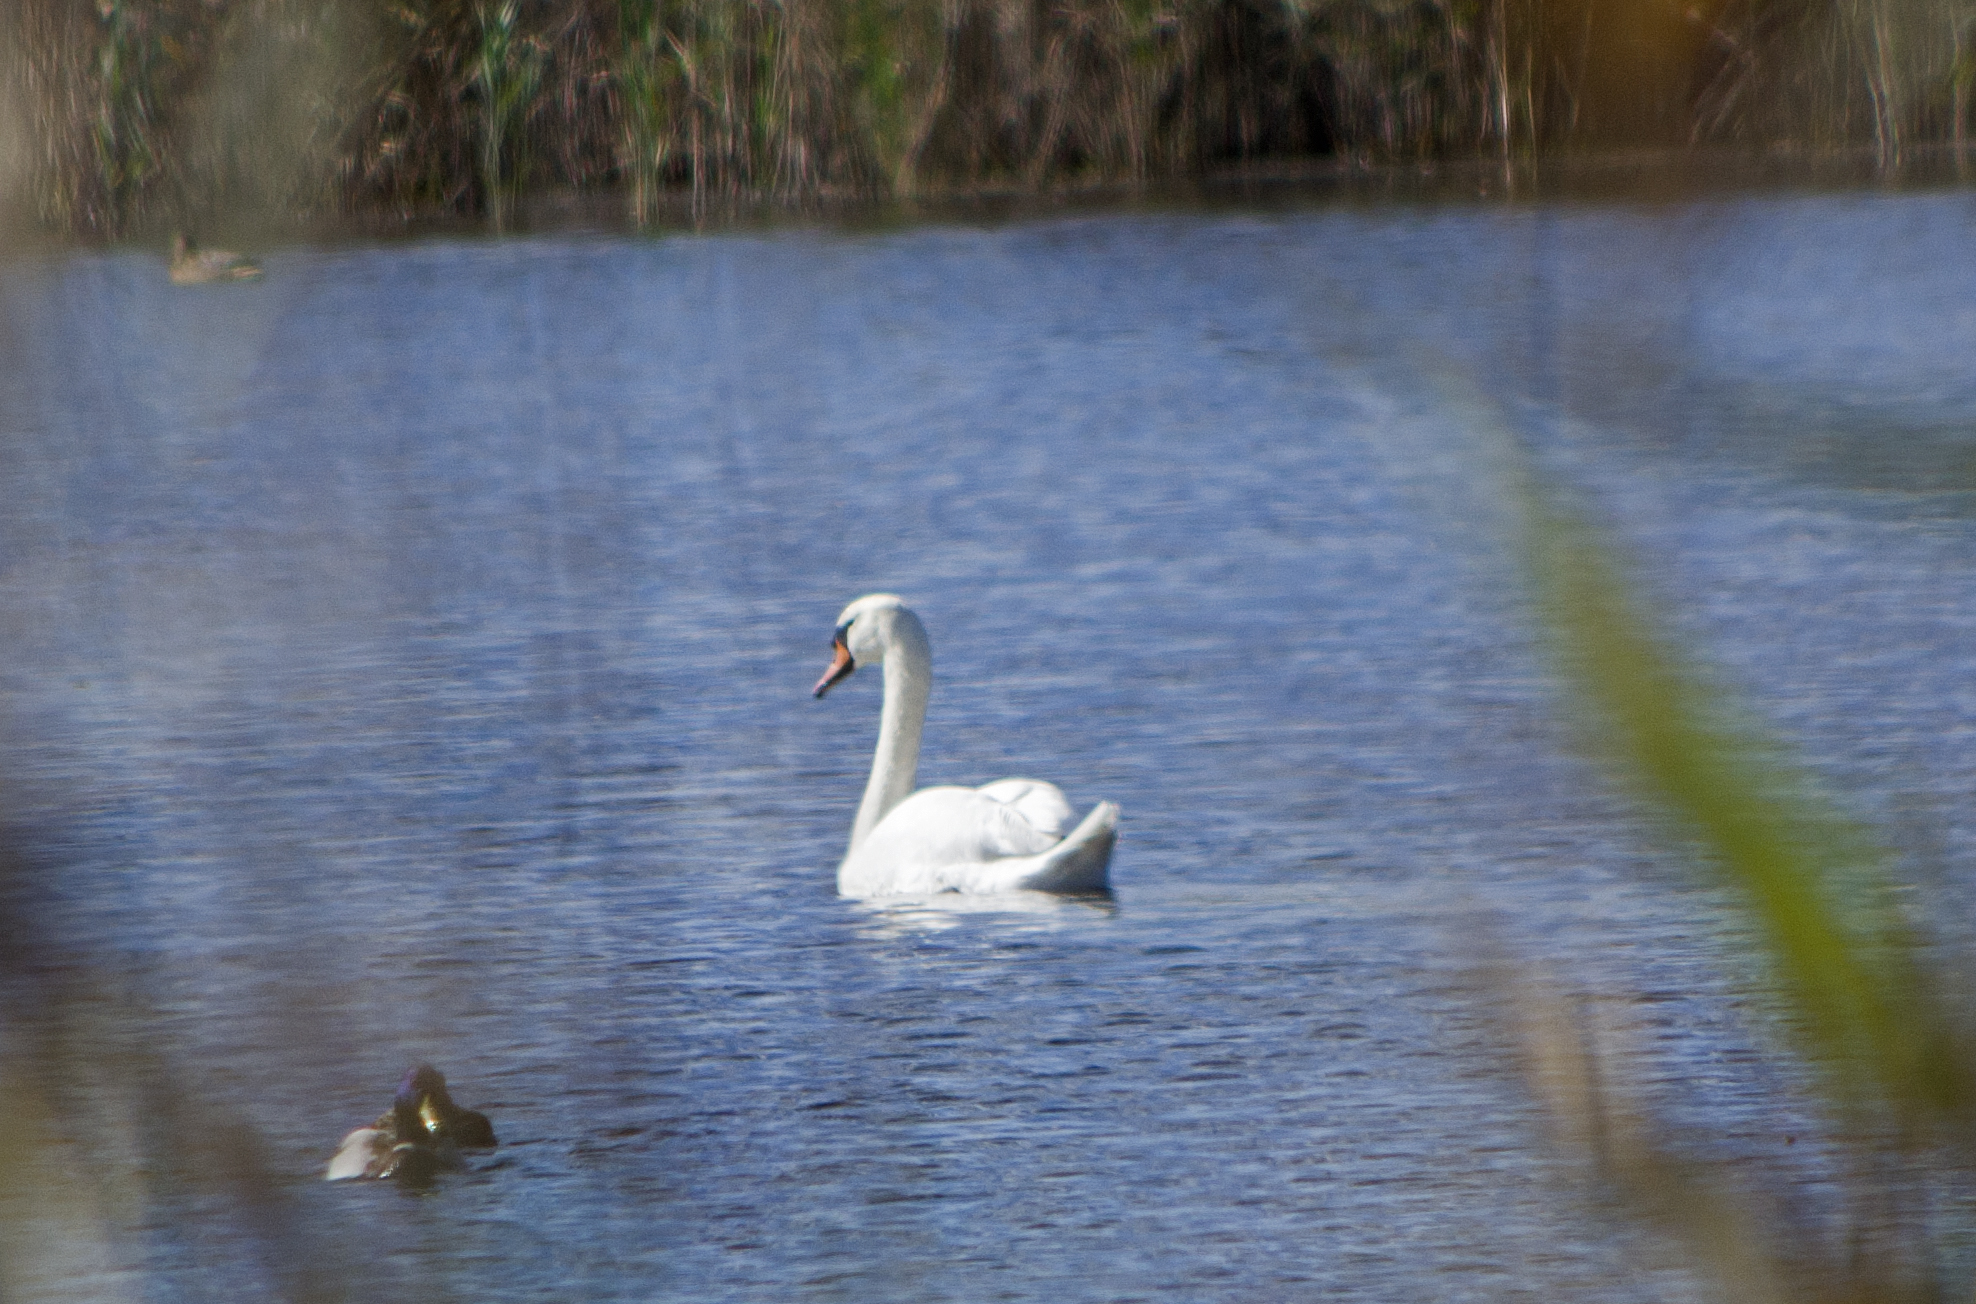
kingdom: Animalia
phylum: Chordata
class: Aves
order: Anseriformes
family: Anatidae
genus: Cygnus
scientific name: Cygnus olor
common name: Mute swan
